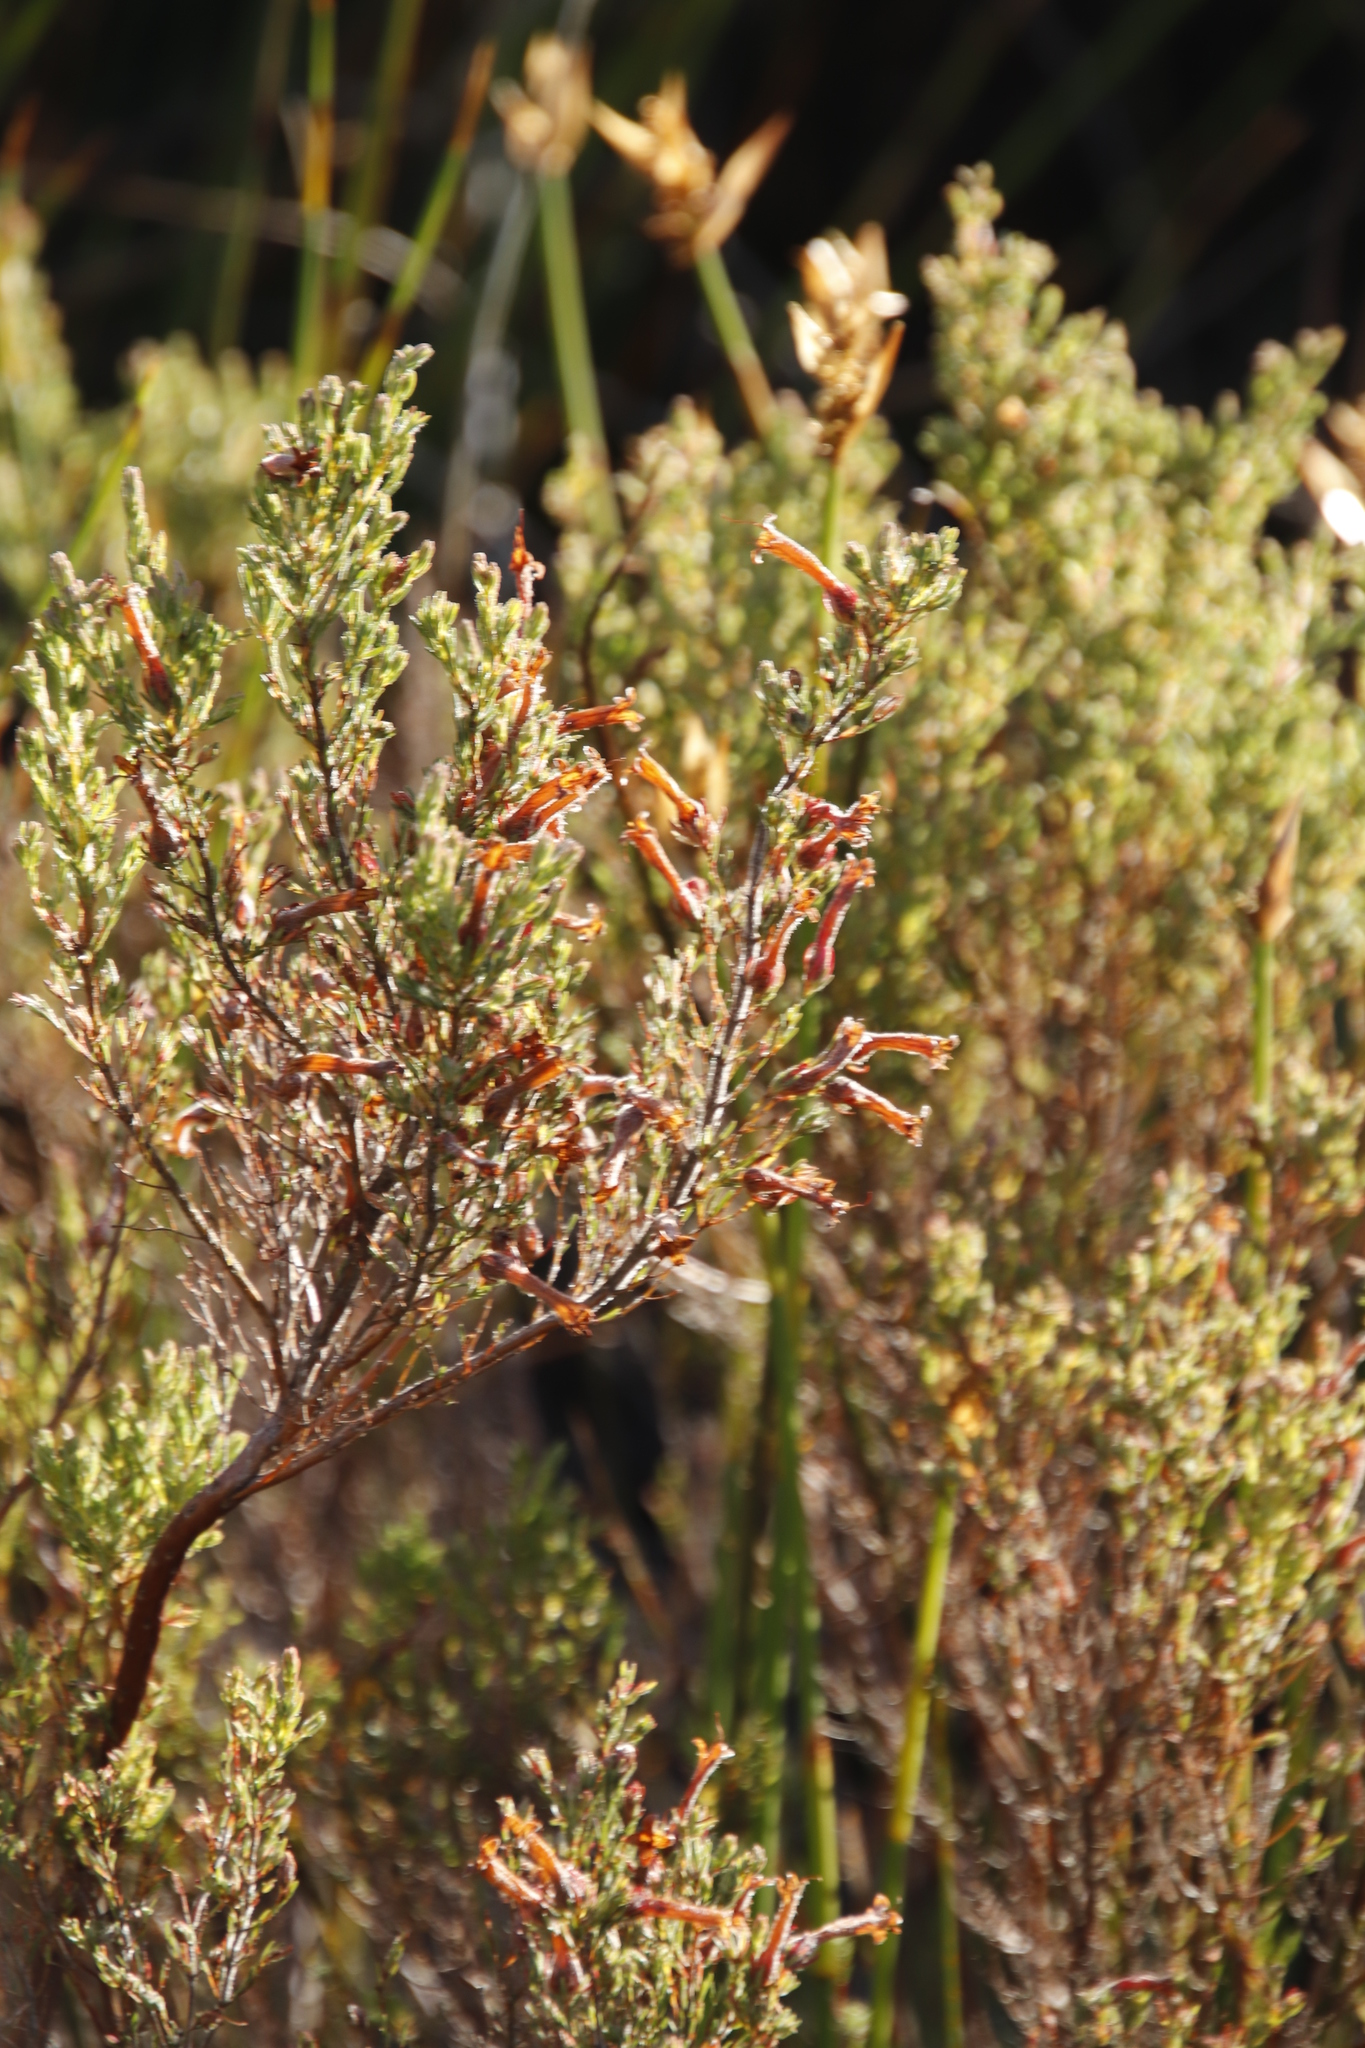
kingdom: Plantae
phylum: Tracheophyta
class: Magnoliopsida
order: Ericales
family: Ericaceae
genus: Erica
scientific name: Erica curviflora
